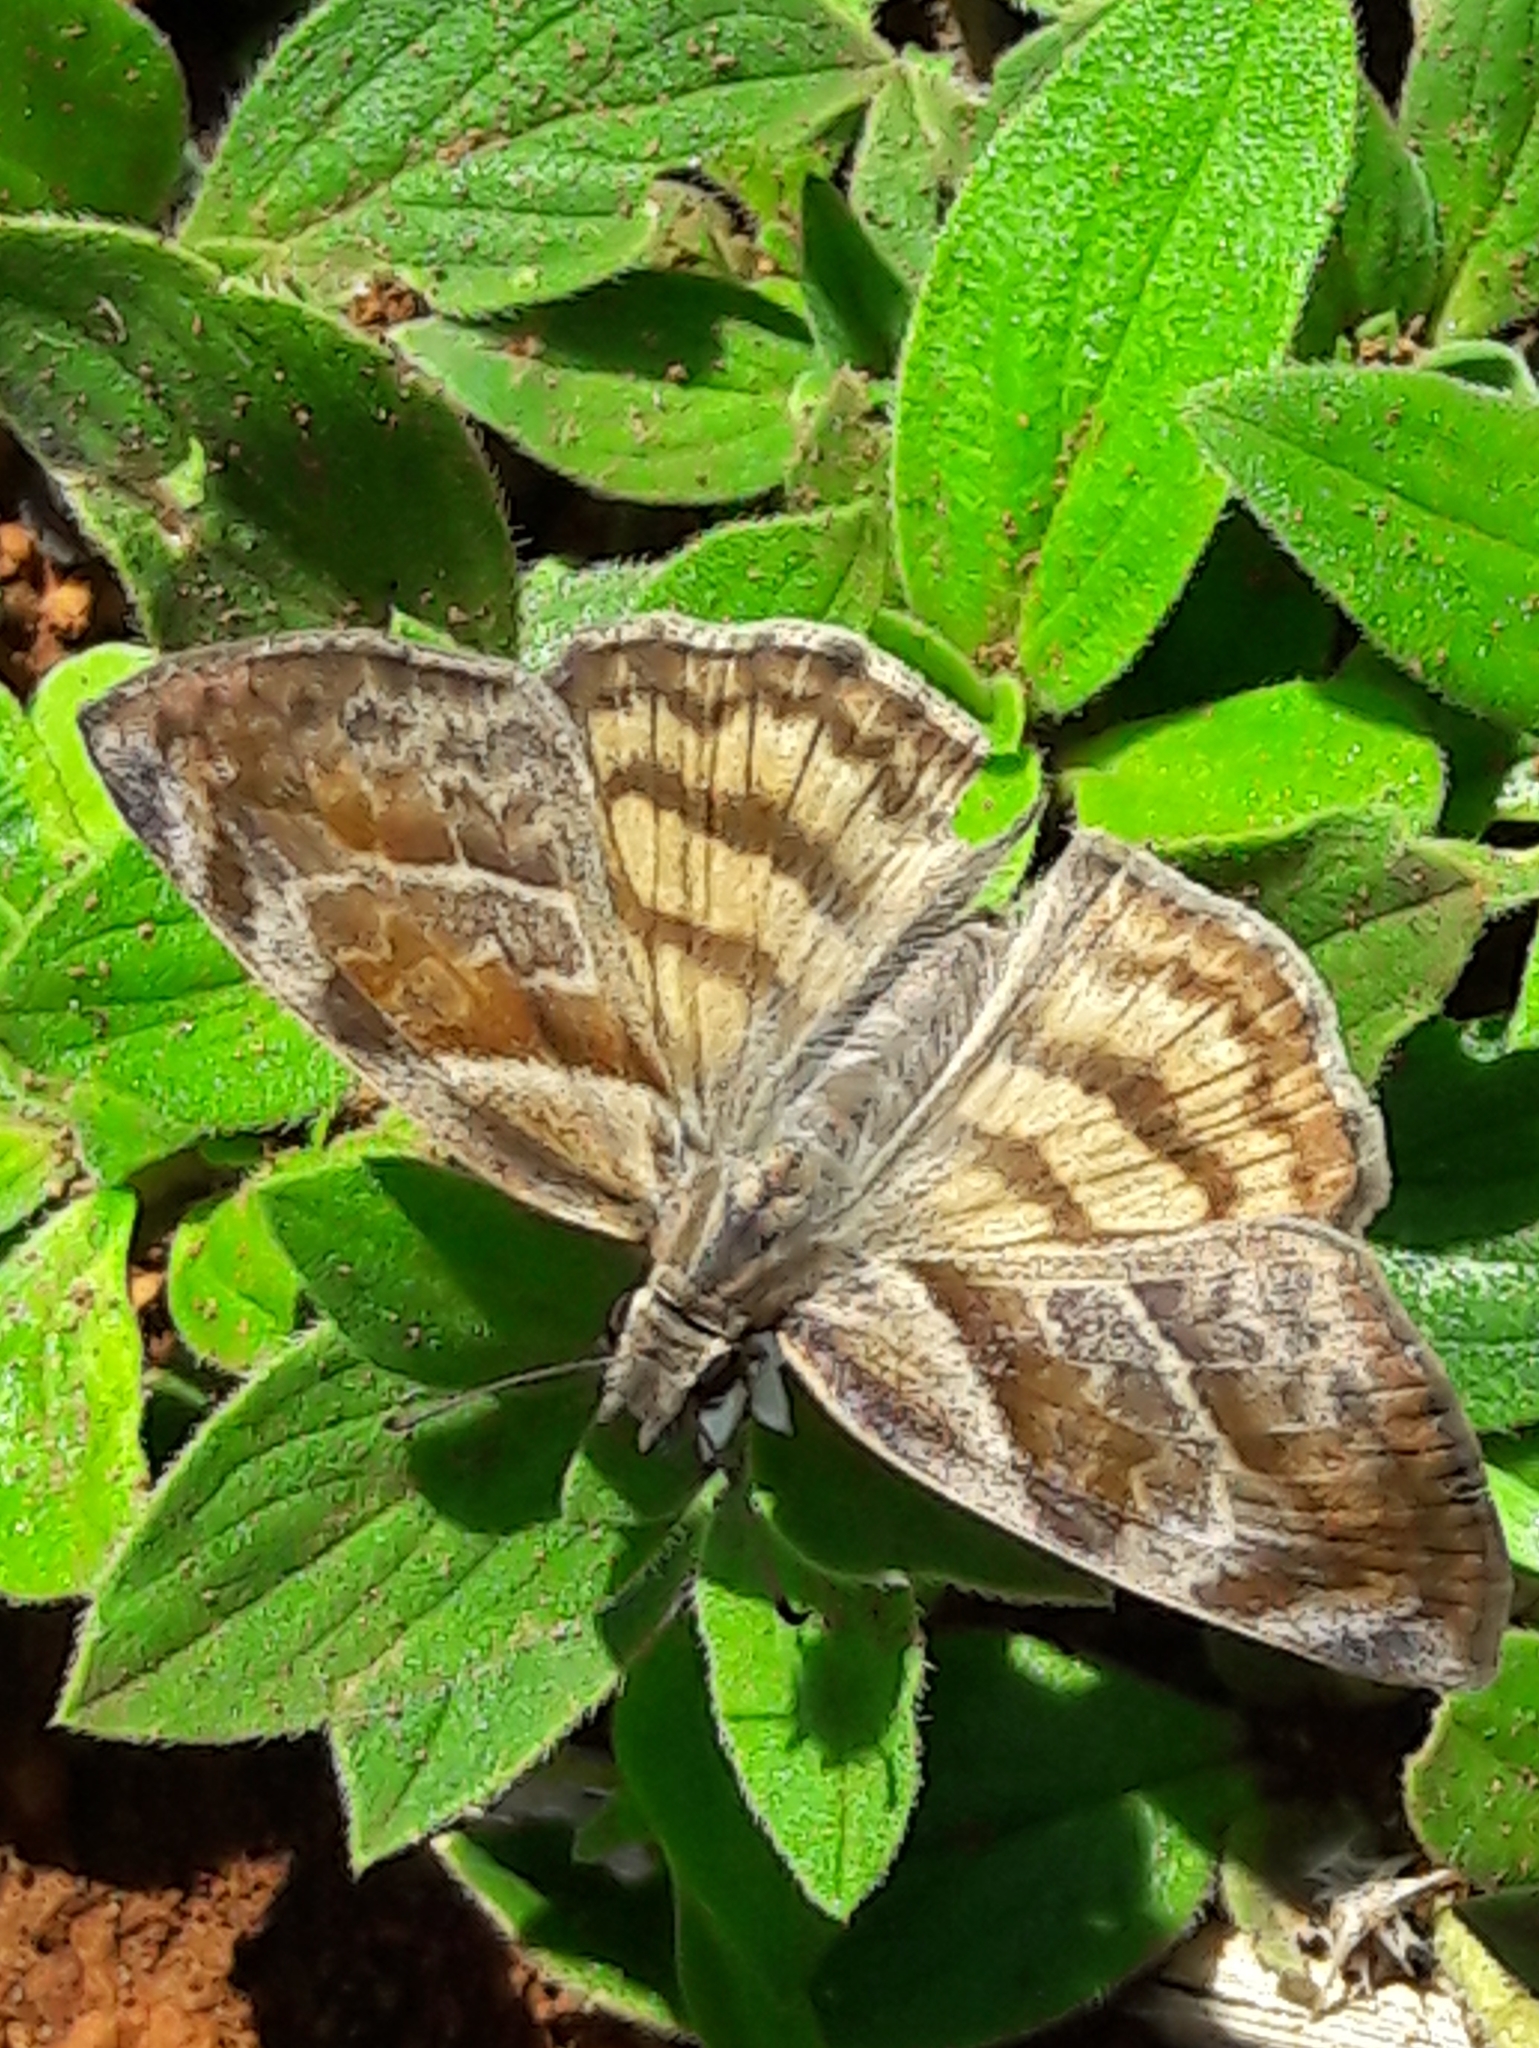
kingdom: Animalia
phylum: Arthropoda
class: Insecta
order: Lepidoptera
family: Hesperiidae
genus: Timochares
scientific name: Timochares trifasciata
